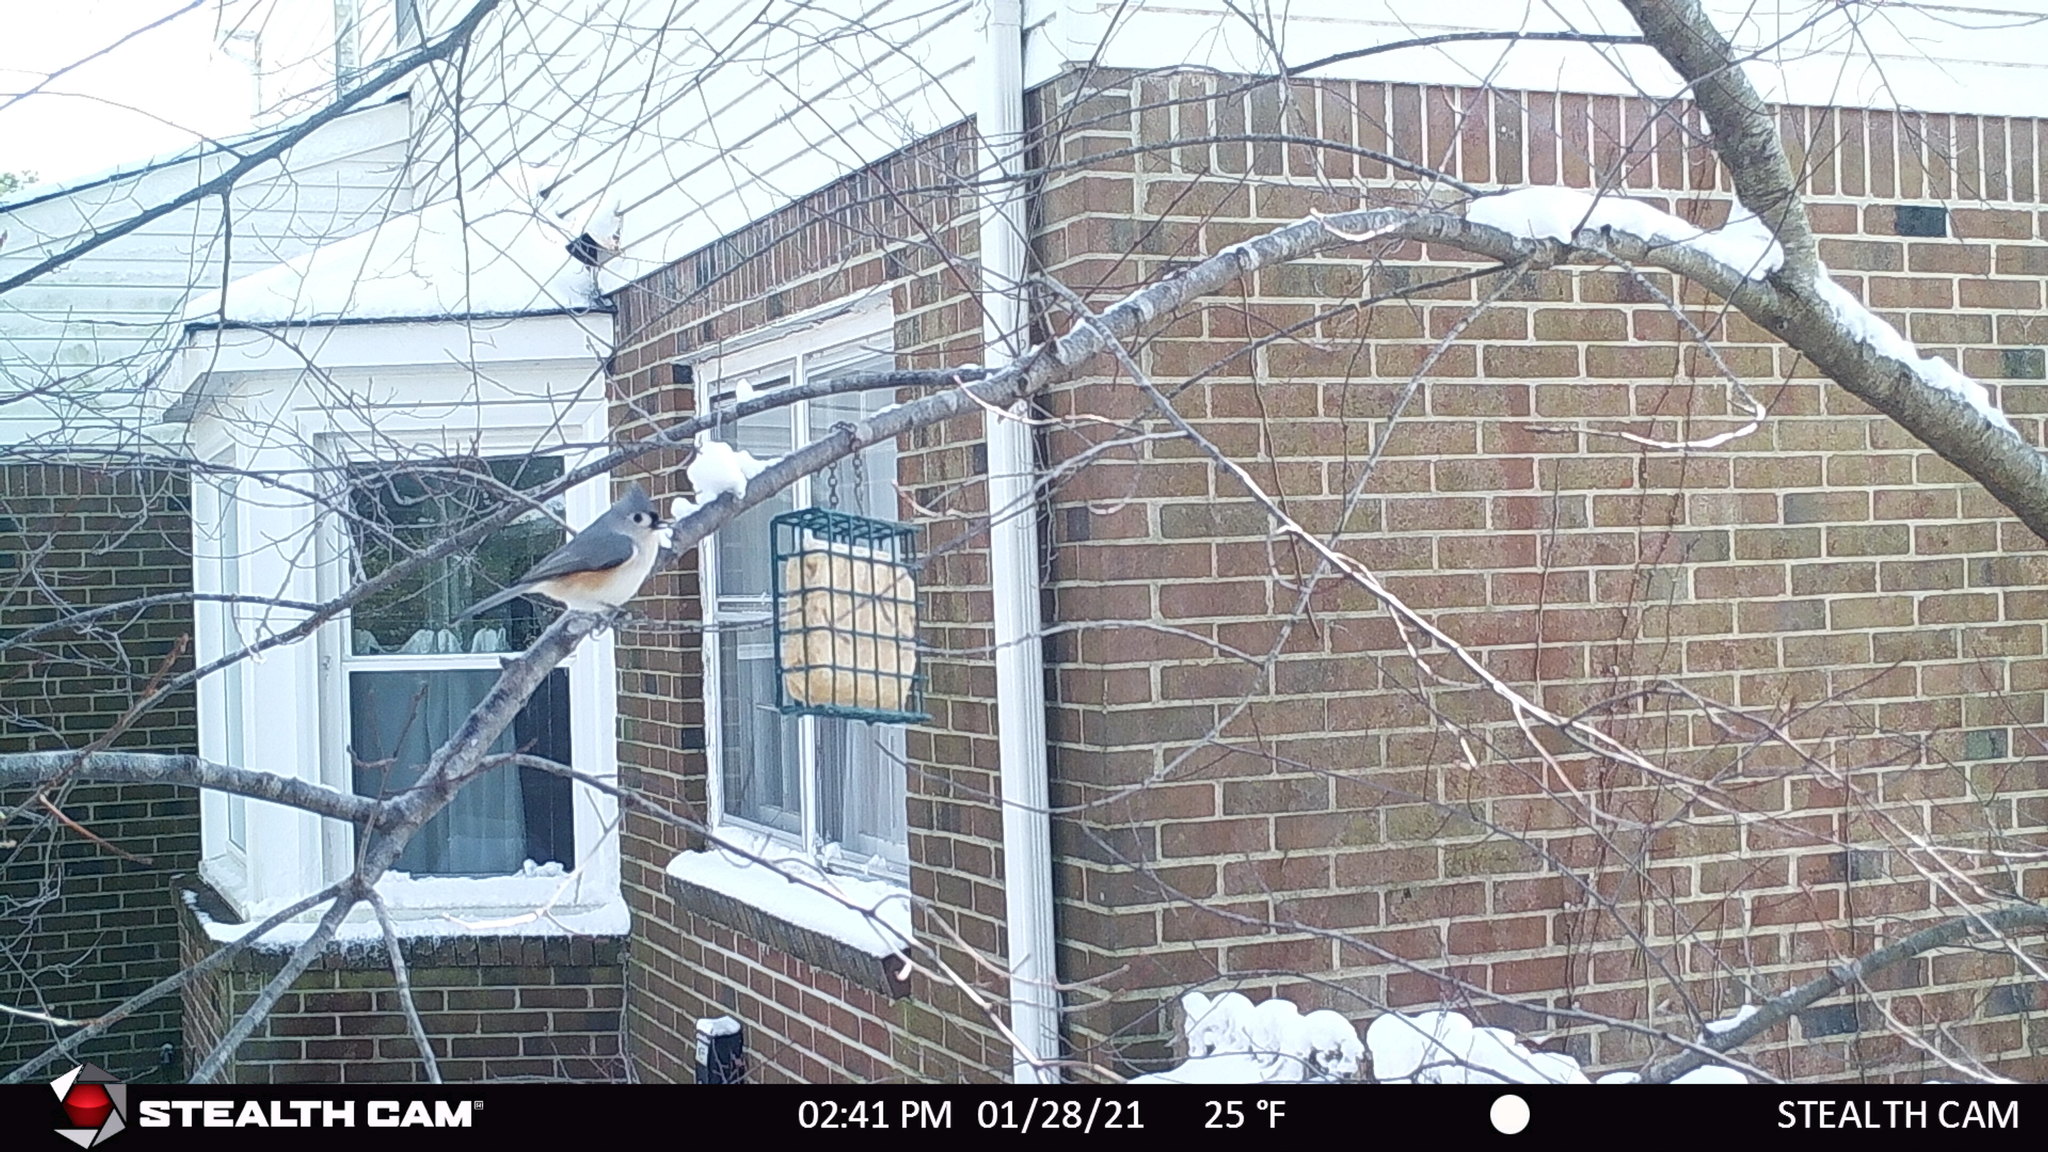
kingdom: Animalia
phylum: Chordata
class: Aves
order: Passeriformes
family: Paridae
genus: Baeolophus
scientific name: Baeolophus bicolor
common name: Tufted titmouse
